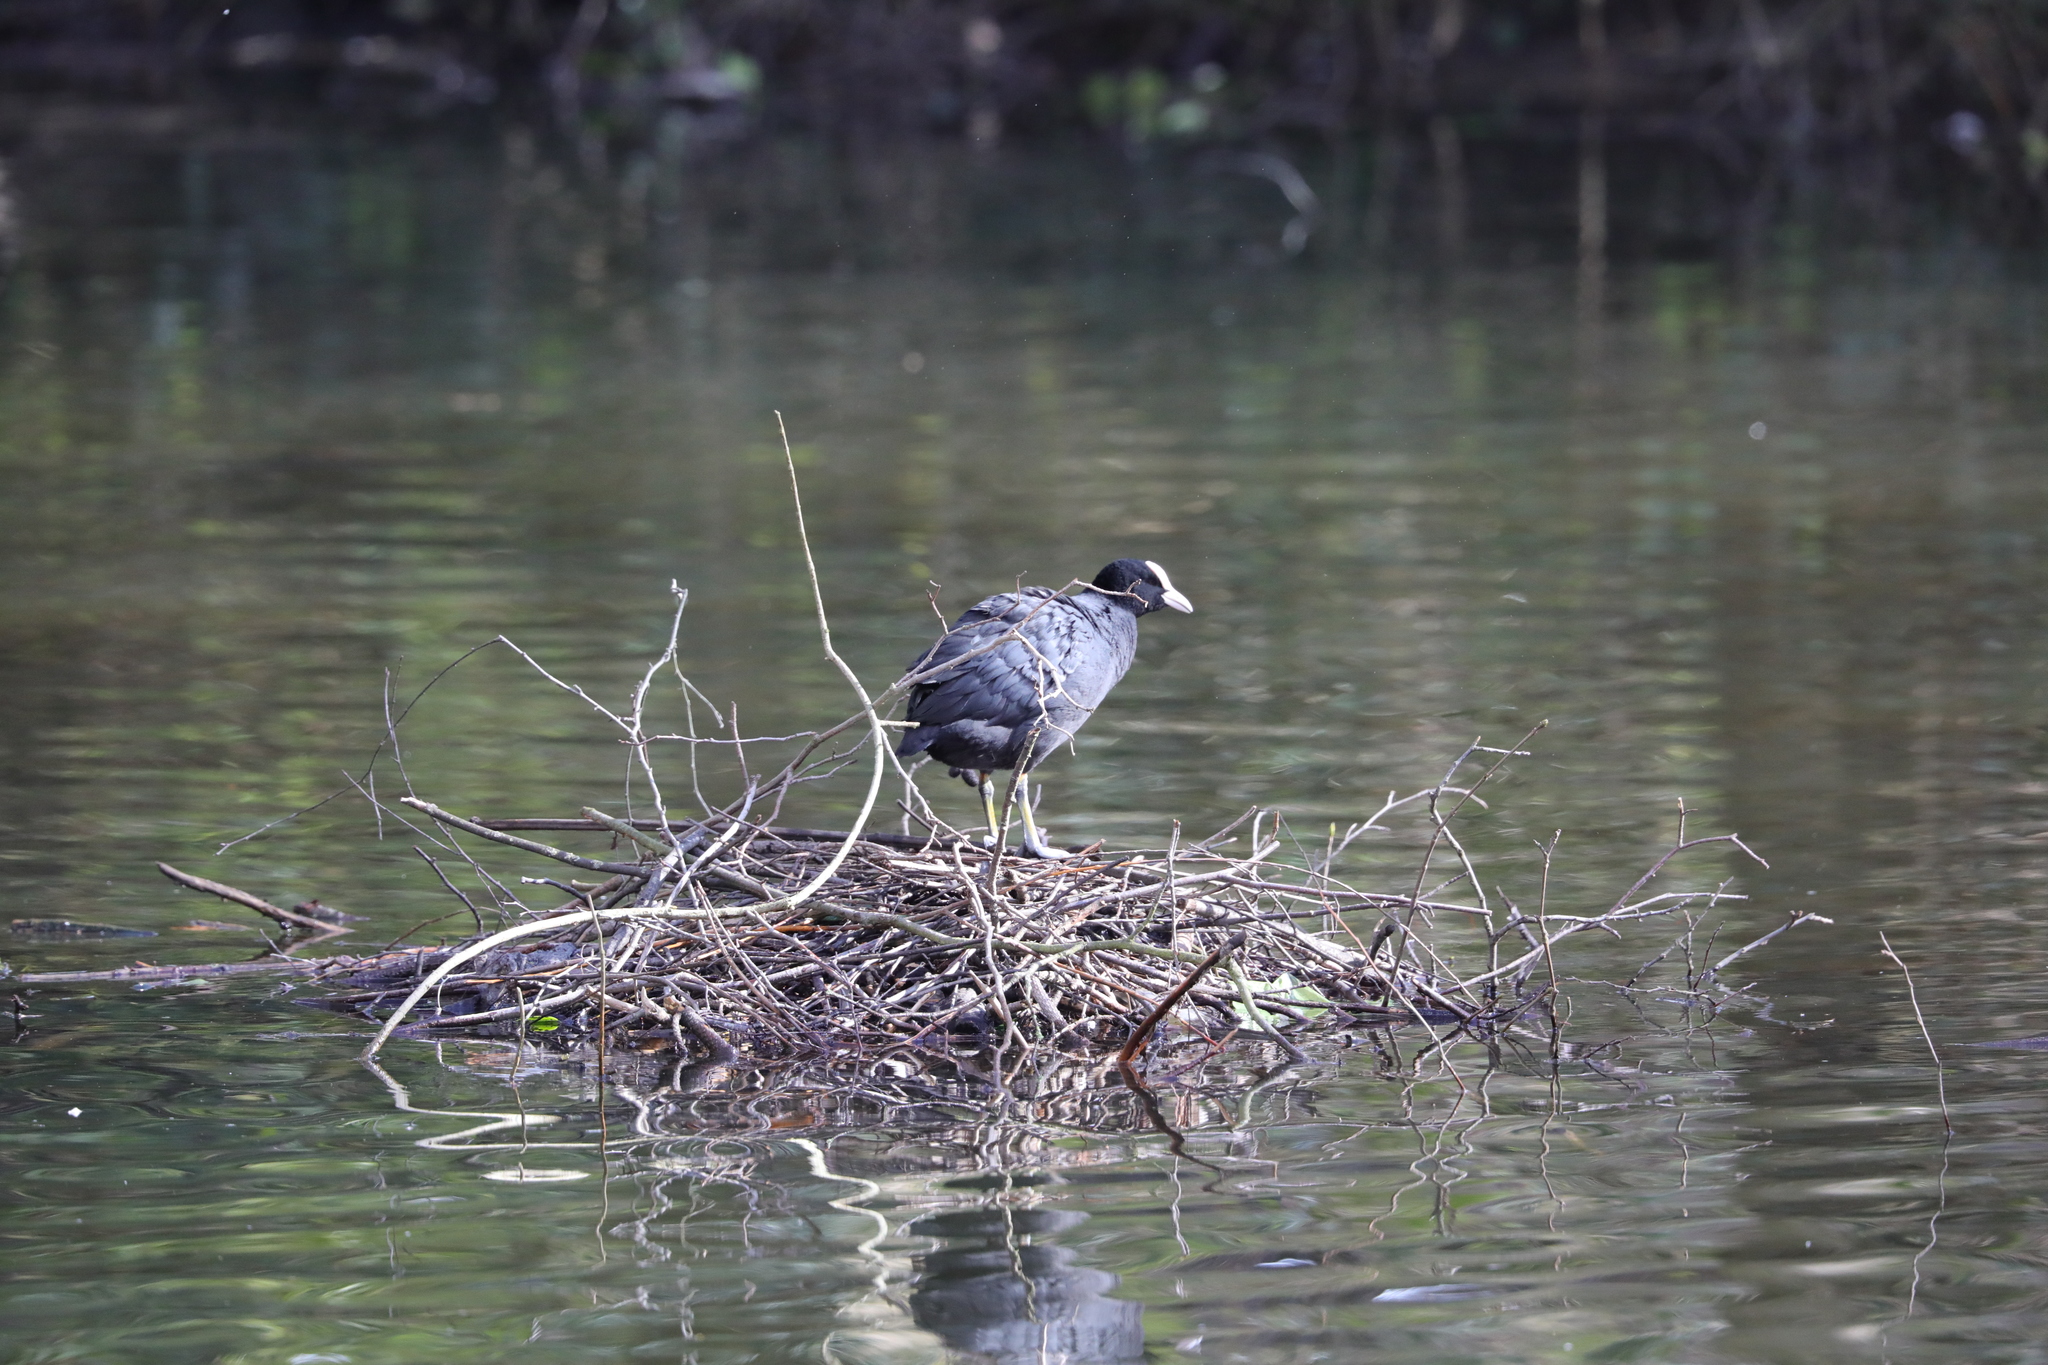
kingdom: Animalia
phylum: Chordata
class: Aves
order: Gruiformes
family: Rallidae
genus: Fulica
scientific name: Fulica atra
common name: Eurasian coot
